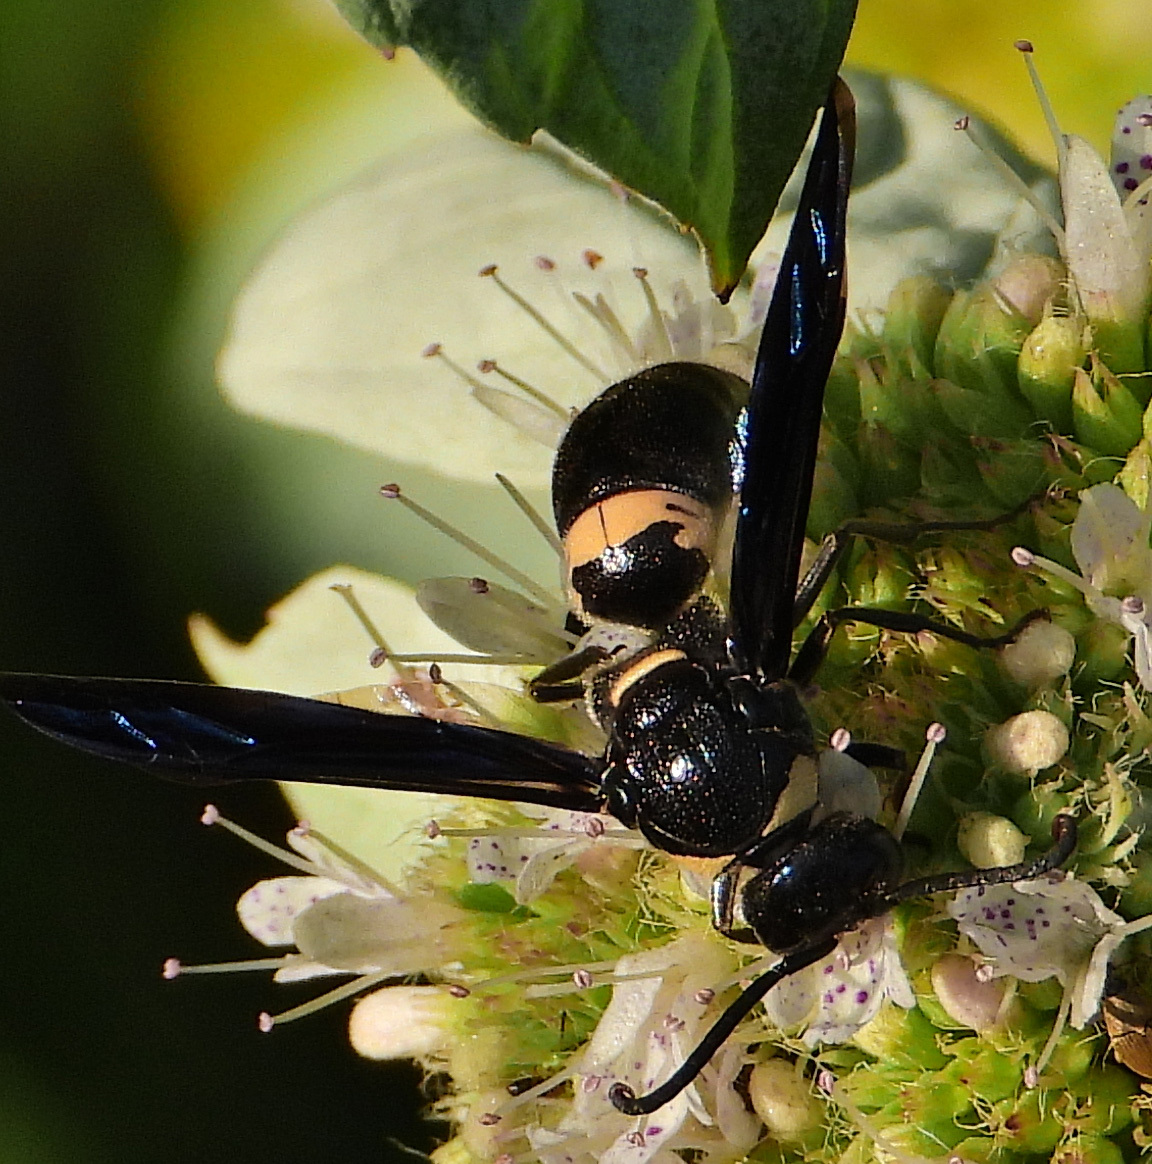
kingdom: Animalia
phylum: Arthropoda
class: Insecta
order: Hymenoptera
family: Eumenidae
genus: Monobia
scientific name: Monobia quadridens
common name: Four-toothed mason wasp
